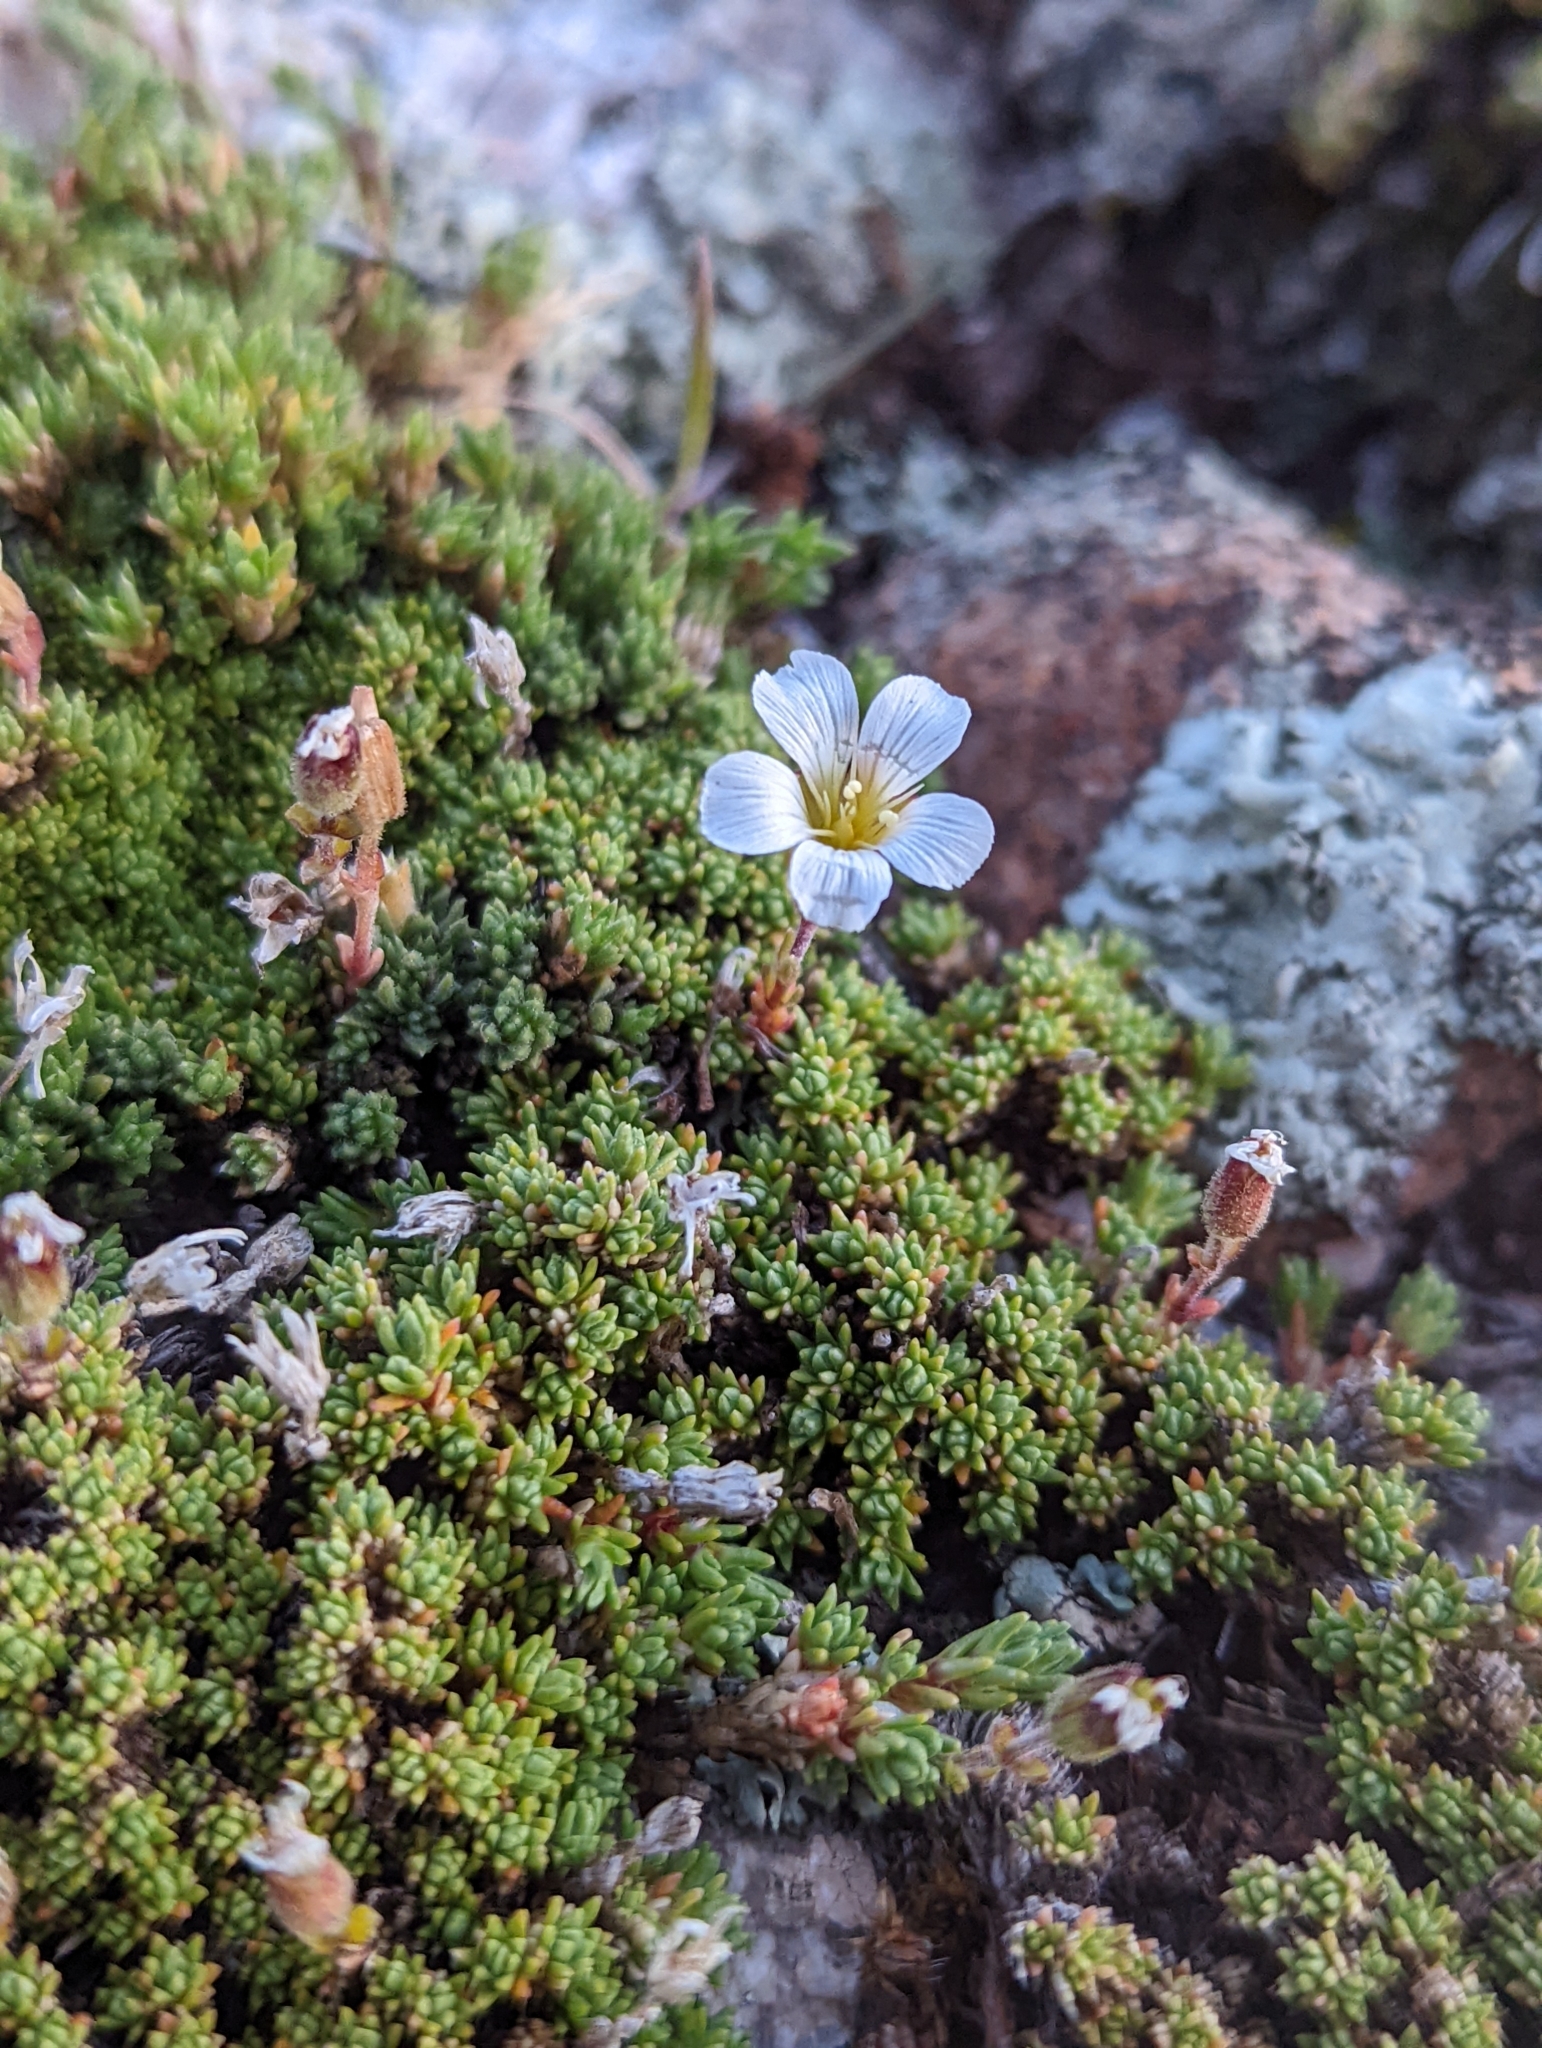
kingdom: Plantae
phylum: Tracheophyta
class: Magnoliopsida
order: Caryophyllales
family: Caryophyllaceae
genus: Cherleria
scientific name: Cherleria obtusiloba
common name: Alpine stitchwort
